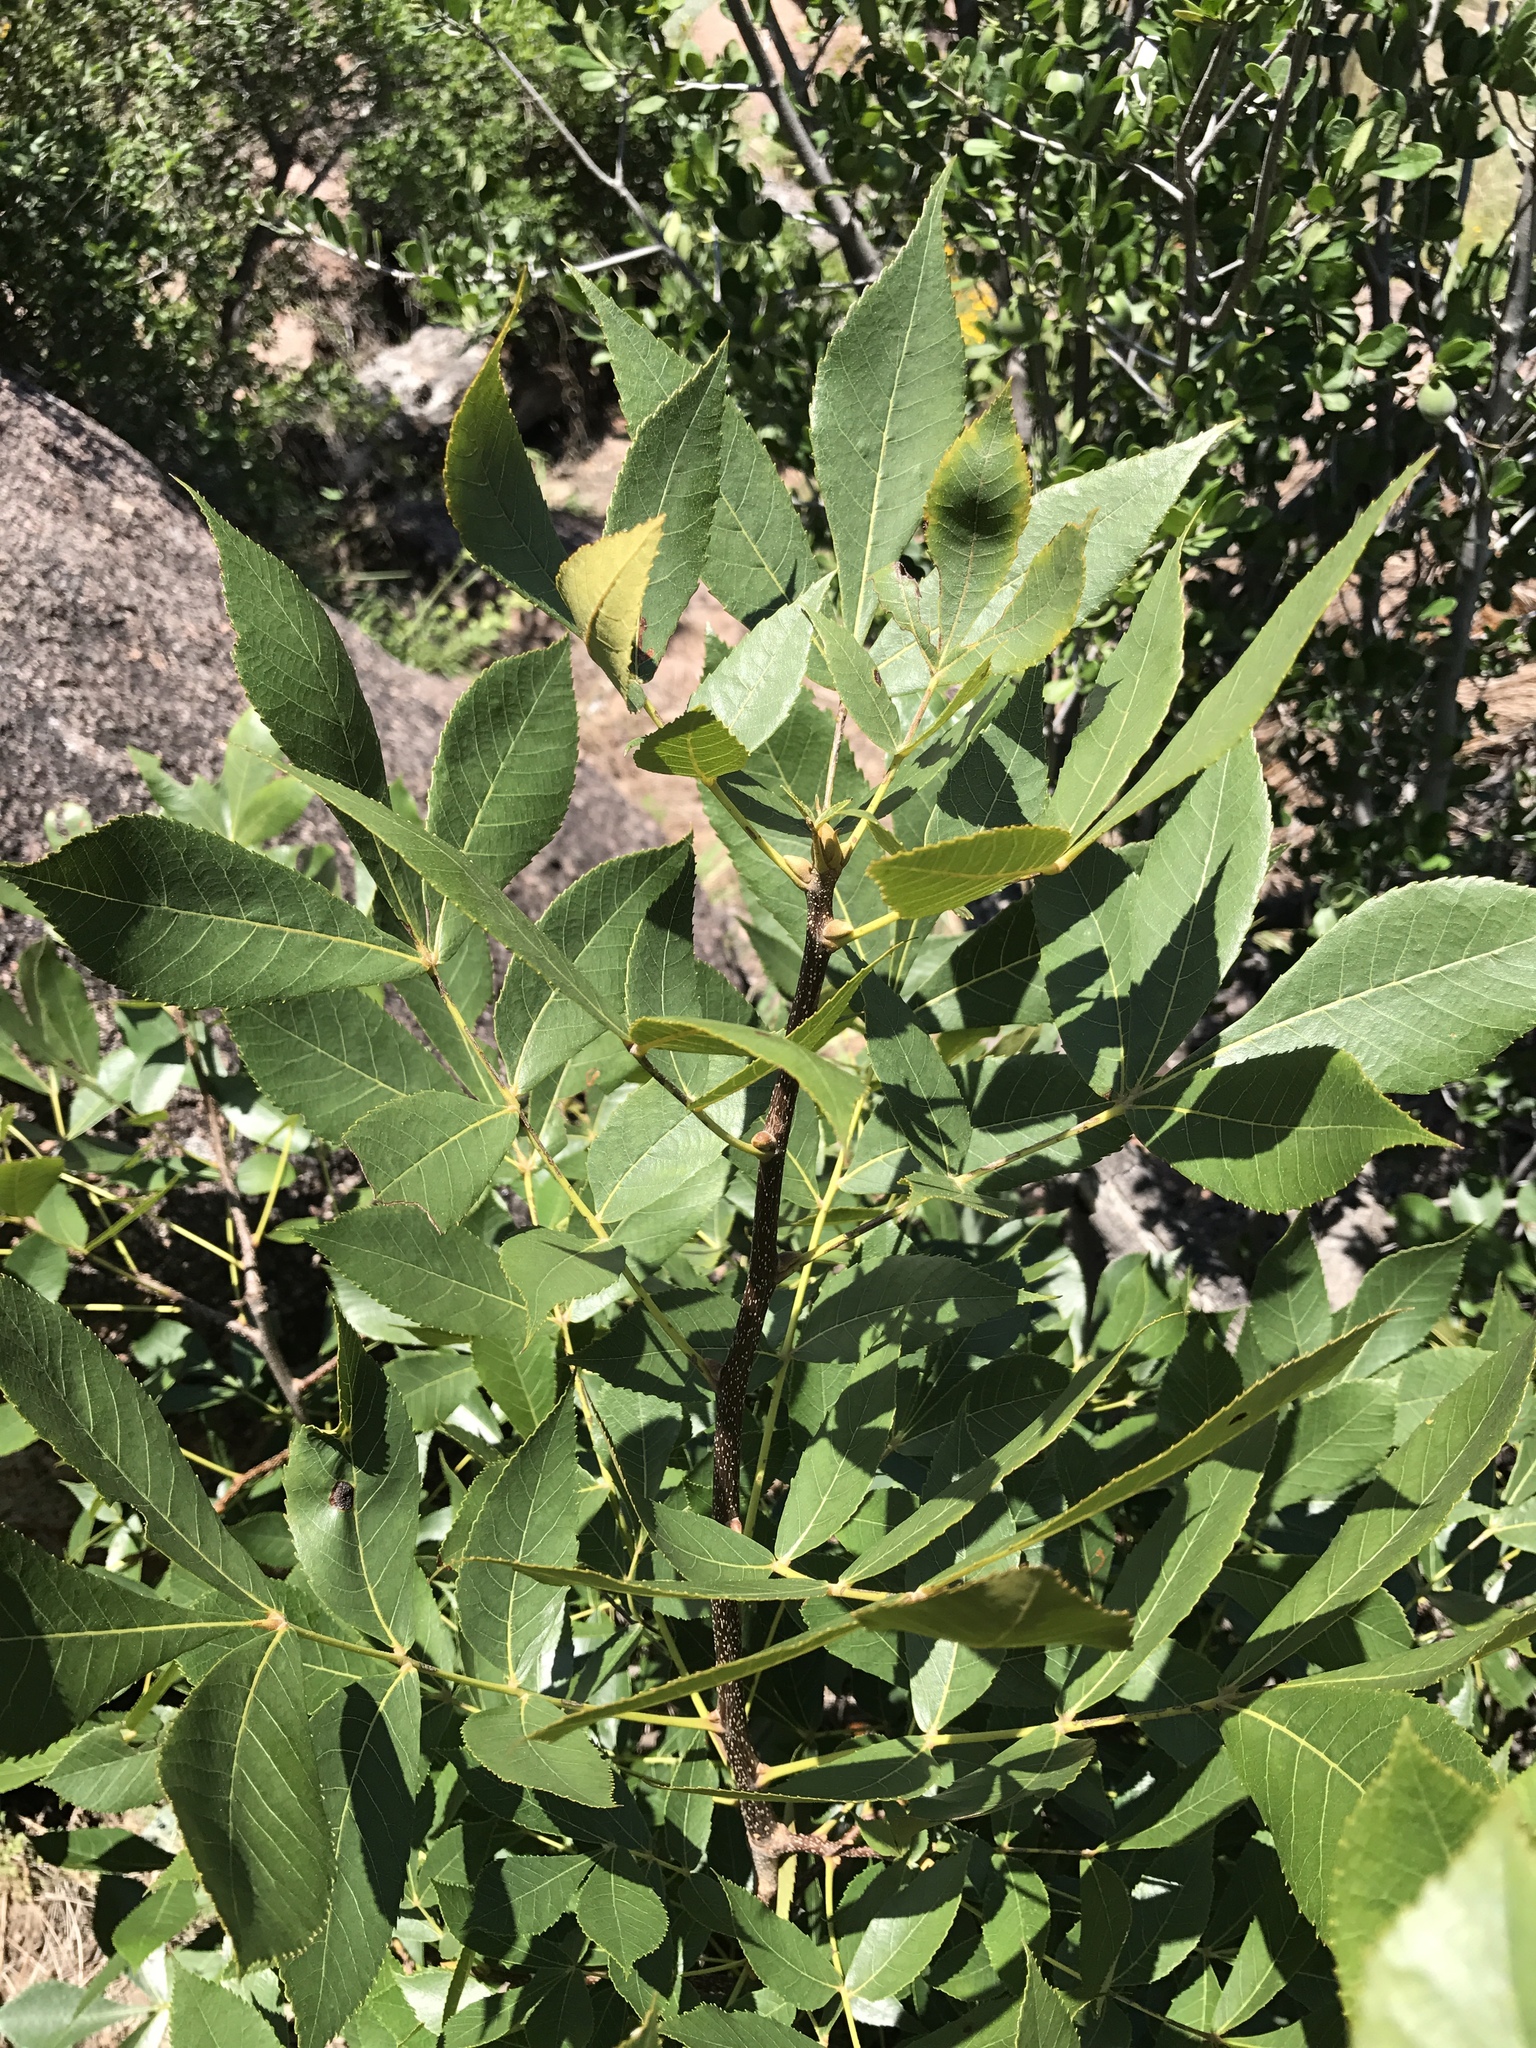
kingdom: Plantae
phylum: Tracheophyta
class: Magnoliopsida
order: Fagales
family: Juglandaceae
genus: Carya
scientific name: Carya texana
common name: Black hickory
